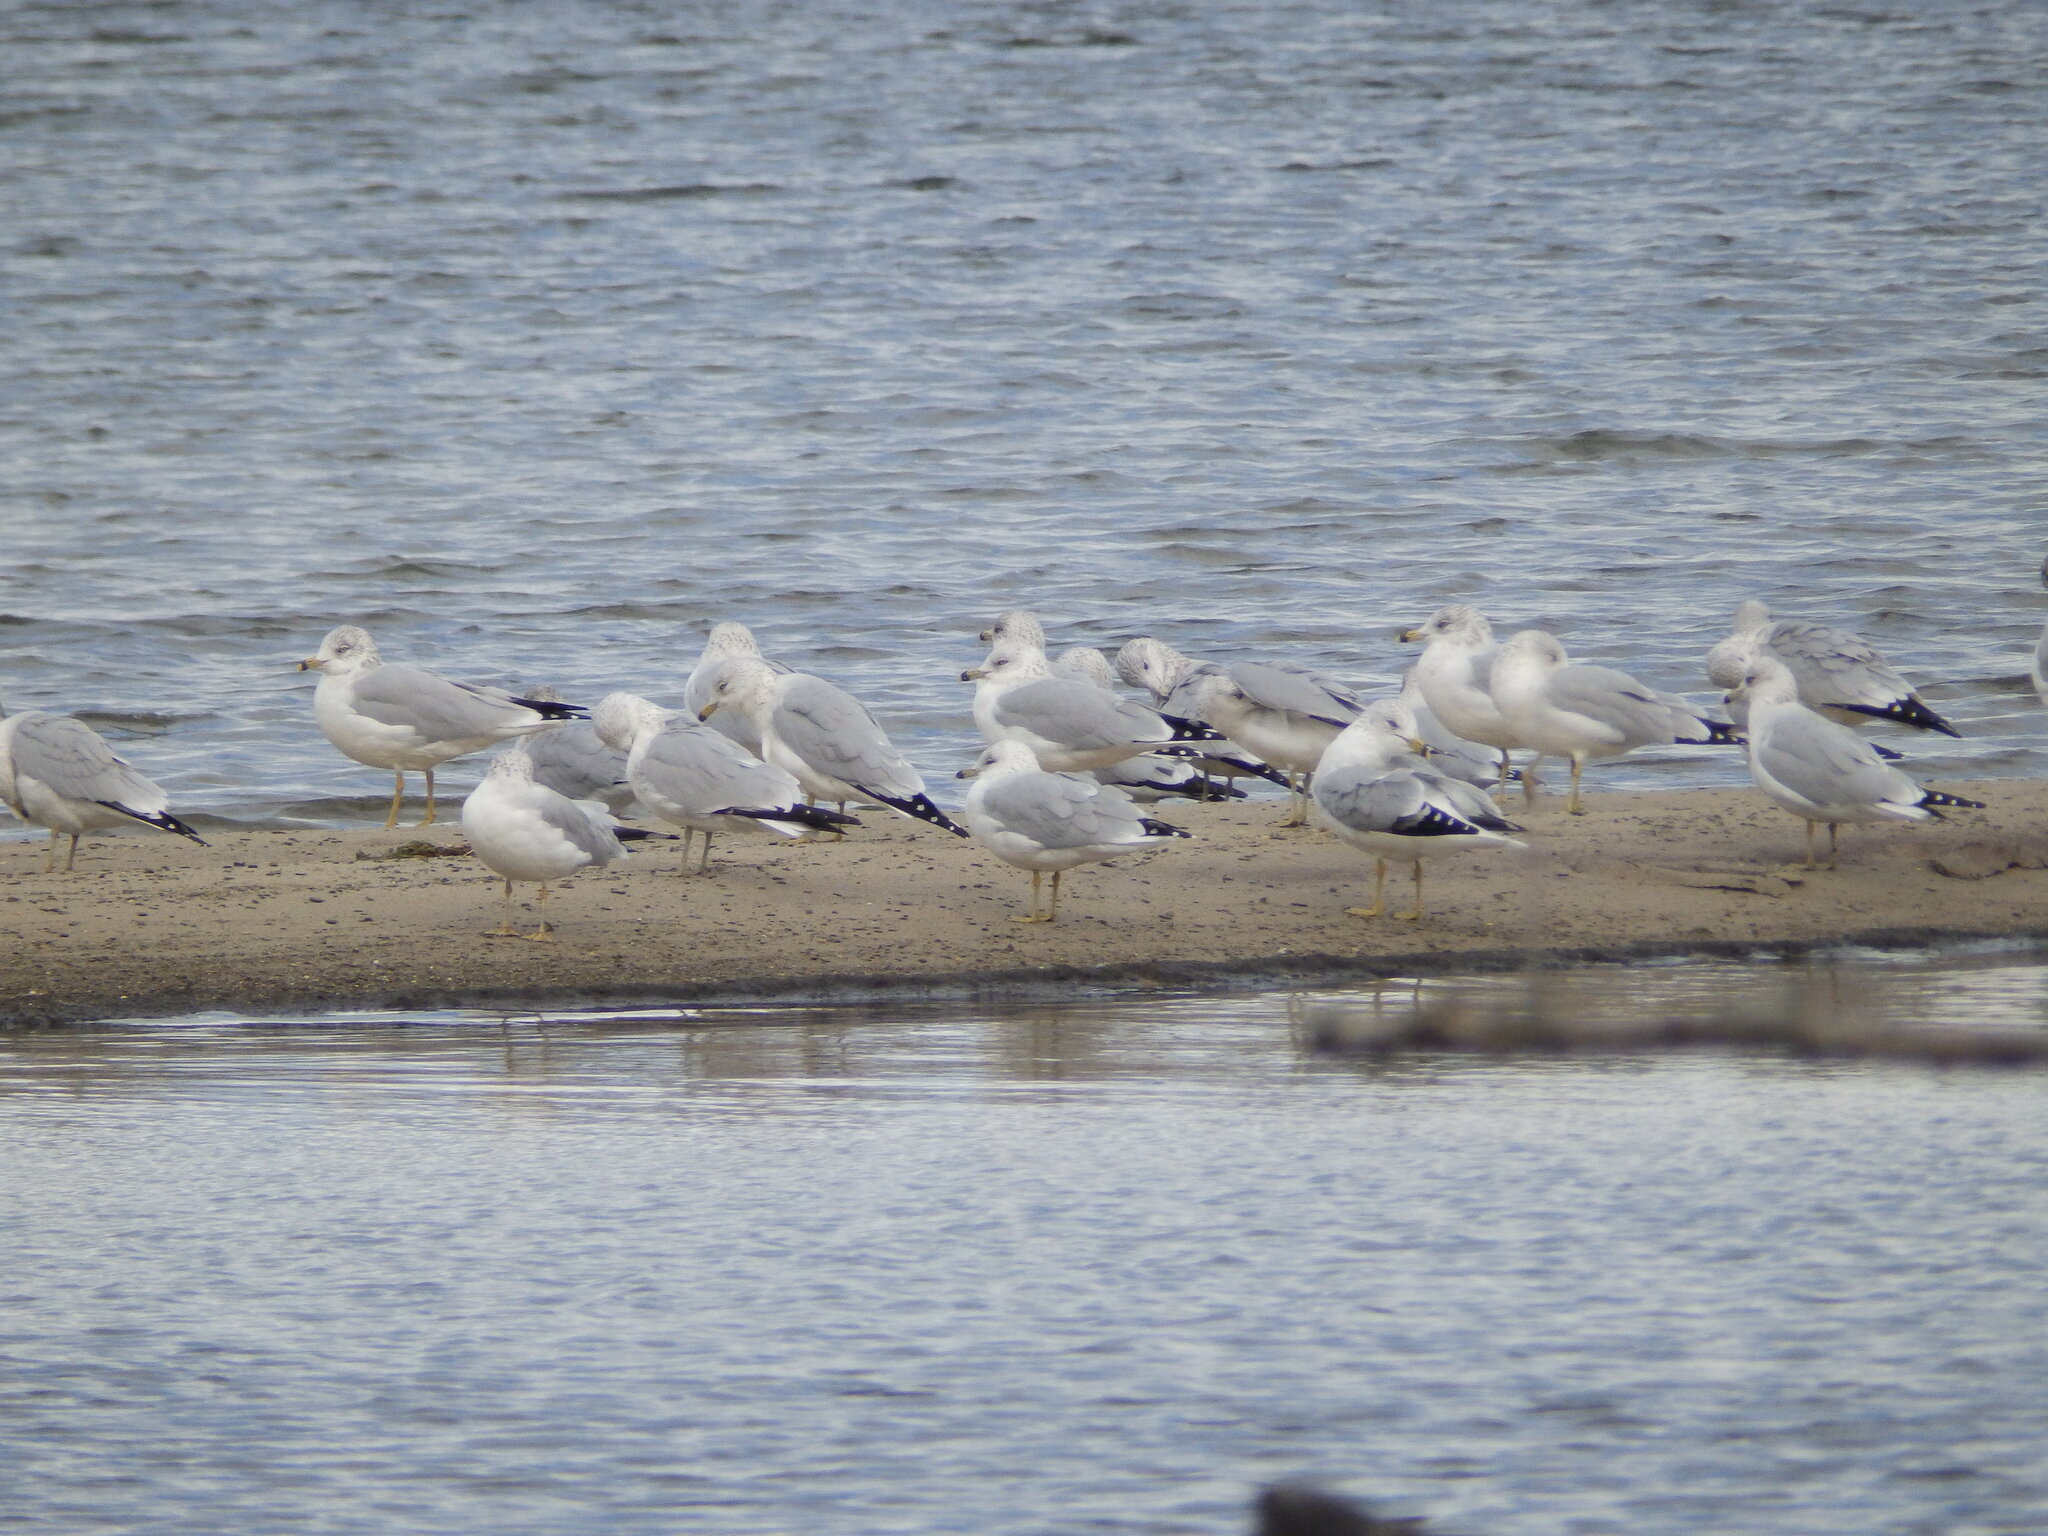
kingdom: Animalia
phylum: Chordata
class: Aves
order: Charadriiformes
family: Laridae
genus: Larus
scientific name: Larus delawarensis
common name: Ring-billed gull
